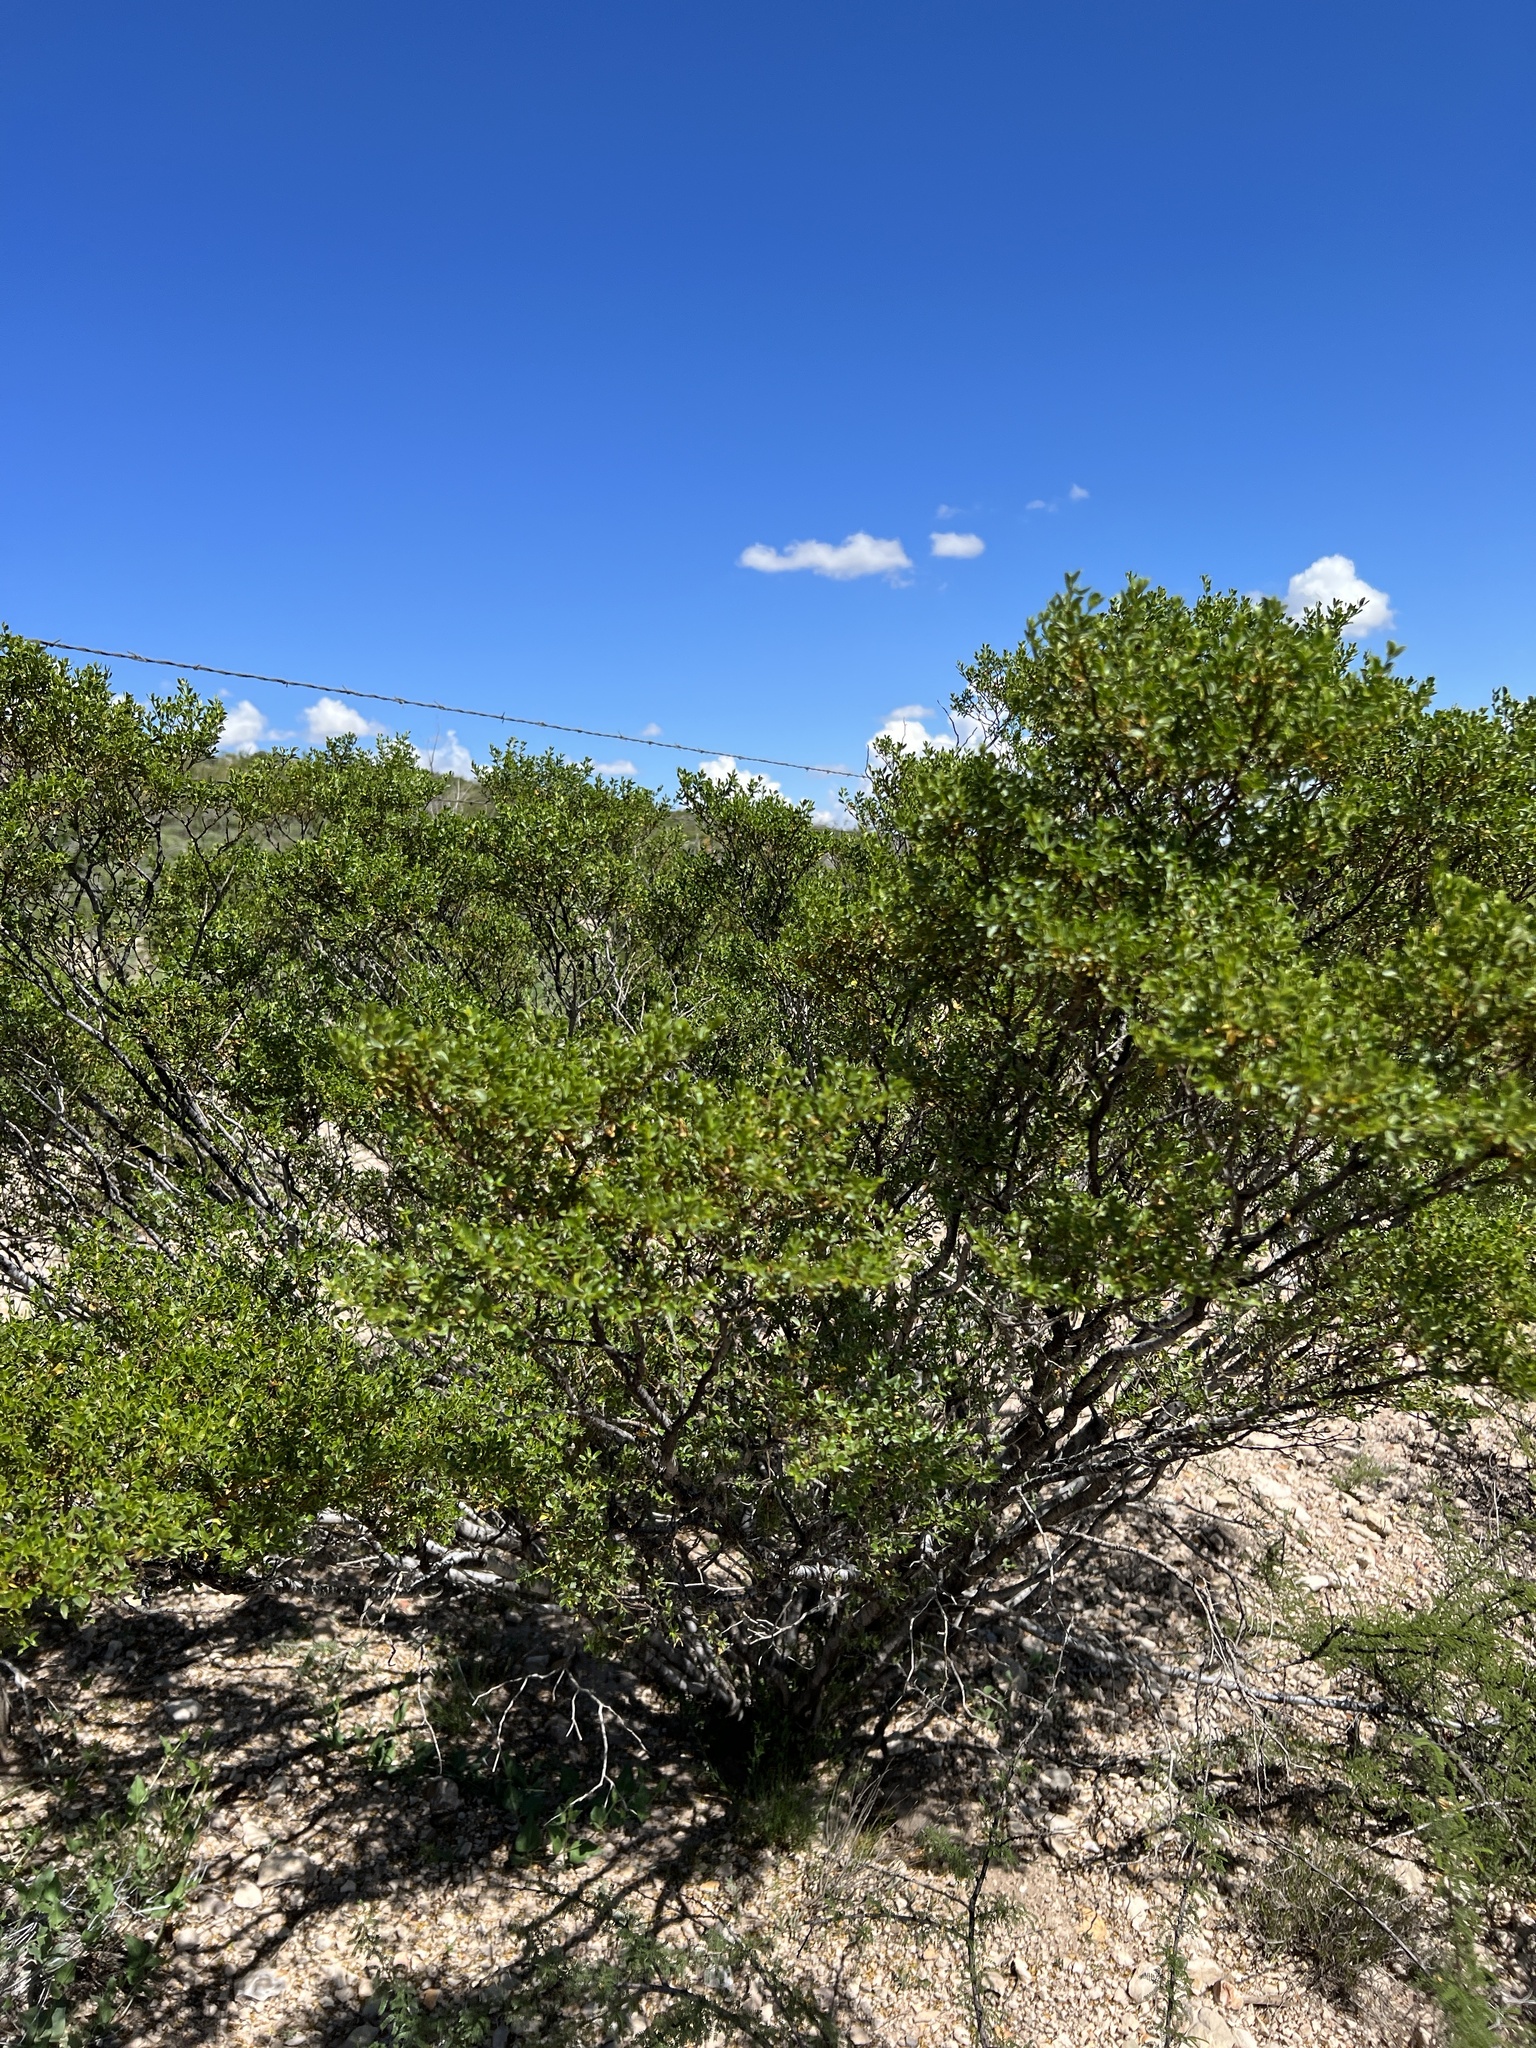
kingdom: Plantae
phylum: Tracheophyta
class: Magnoliopsida
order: Zygophyllales
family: Zygophyllaceae
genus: Larrea
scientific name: Larrea tridentata
